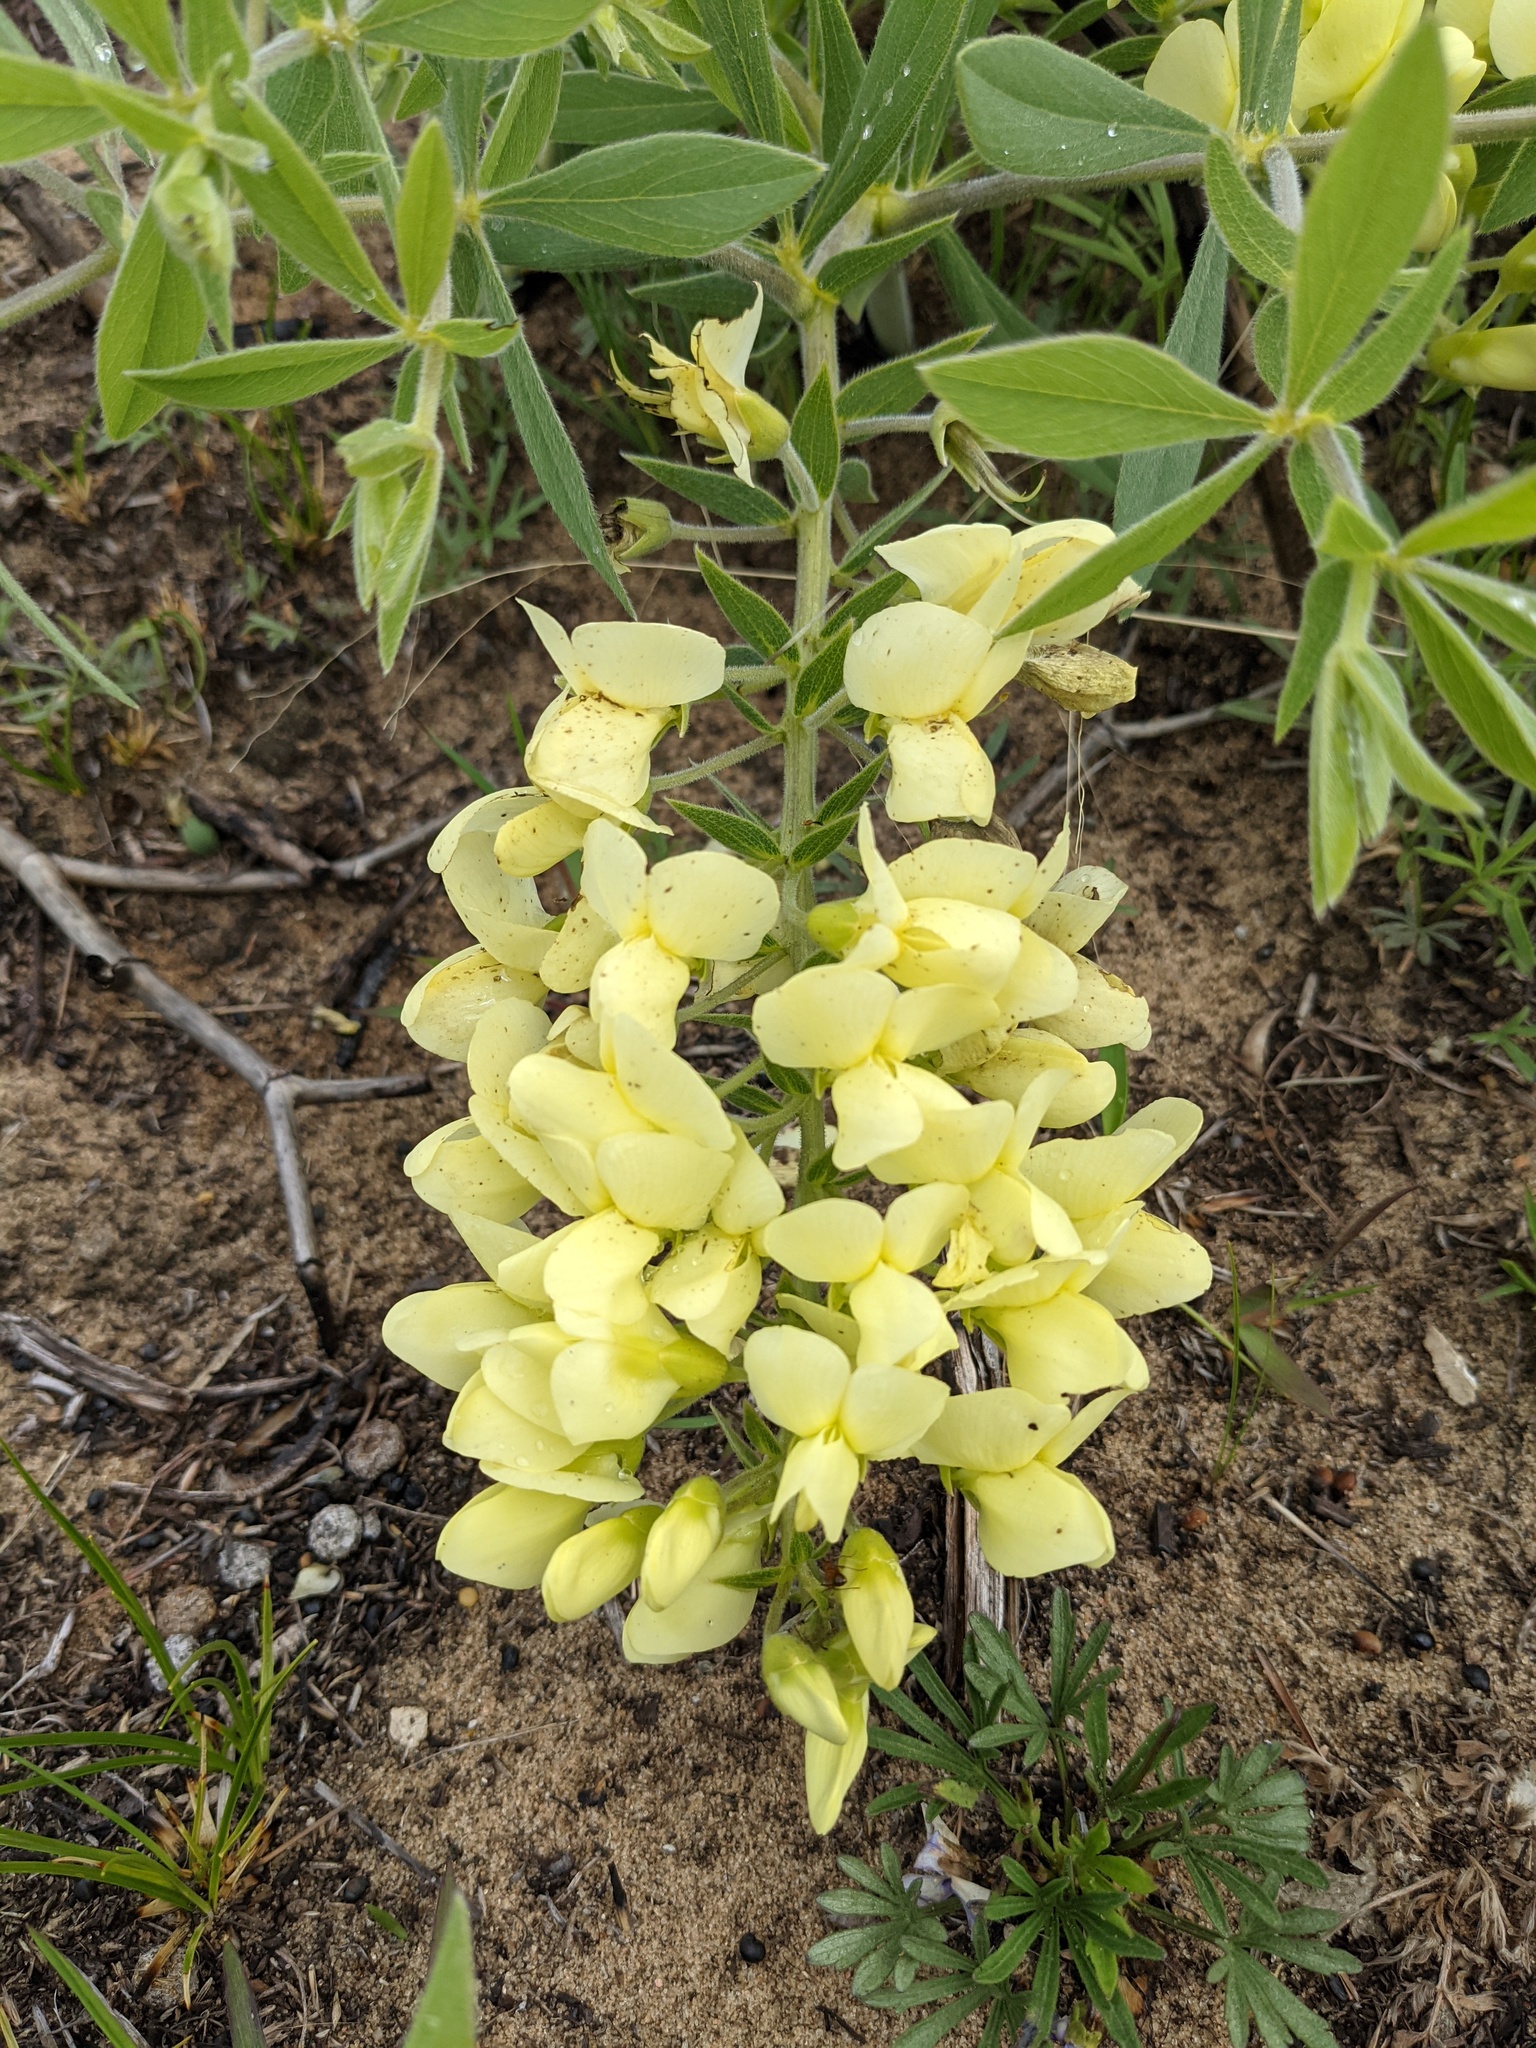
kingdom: Plantae
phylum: Tracheophyta
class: Magnoliopsida
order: Fabales
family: Fabaceae
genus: Baptisia
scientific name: Baptisia bracteata
